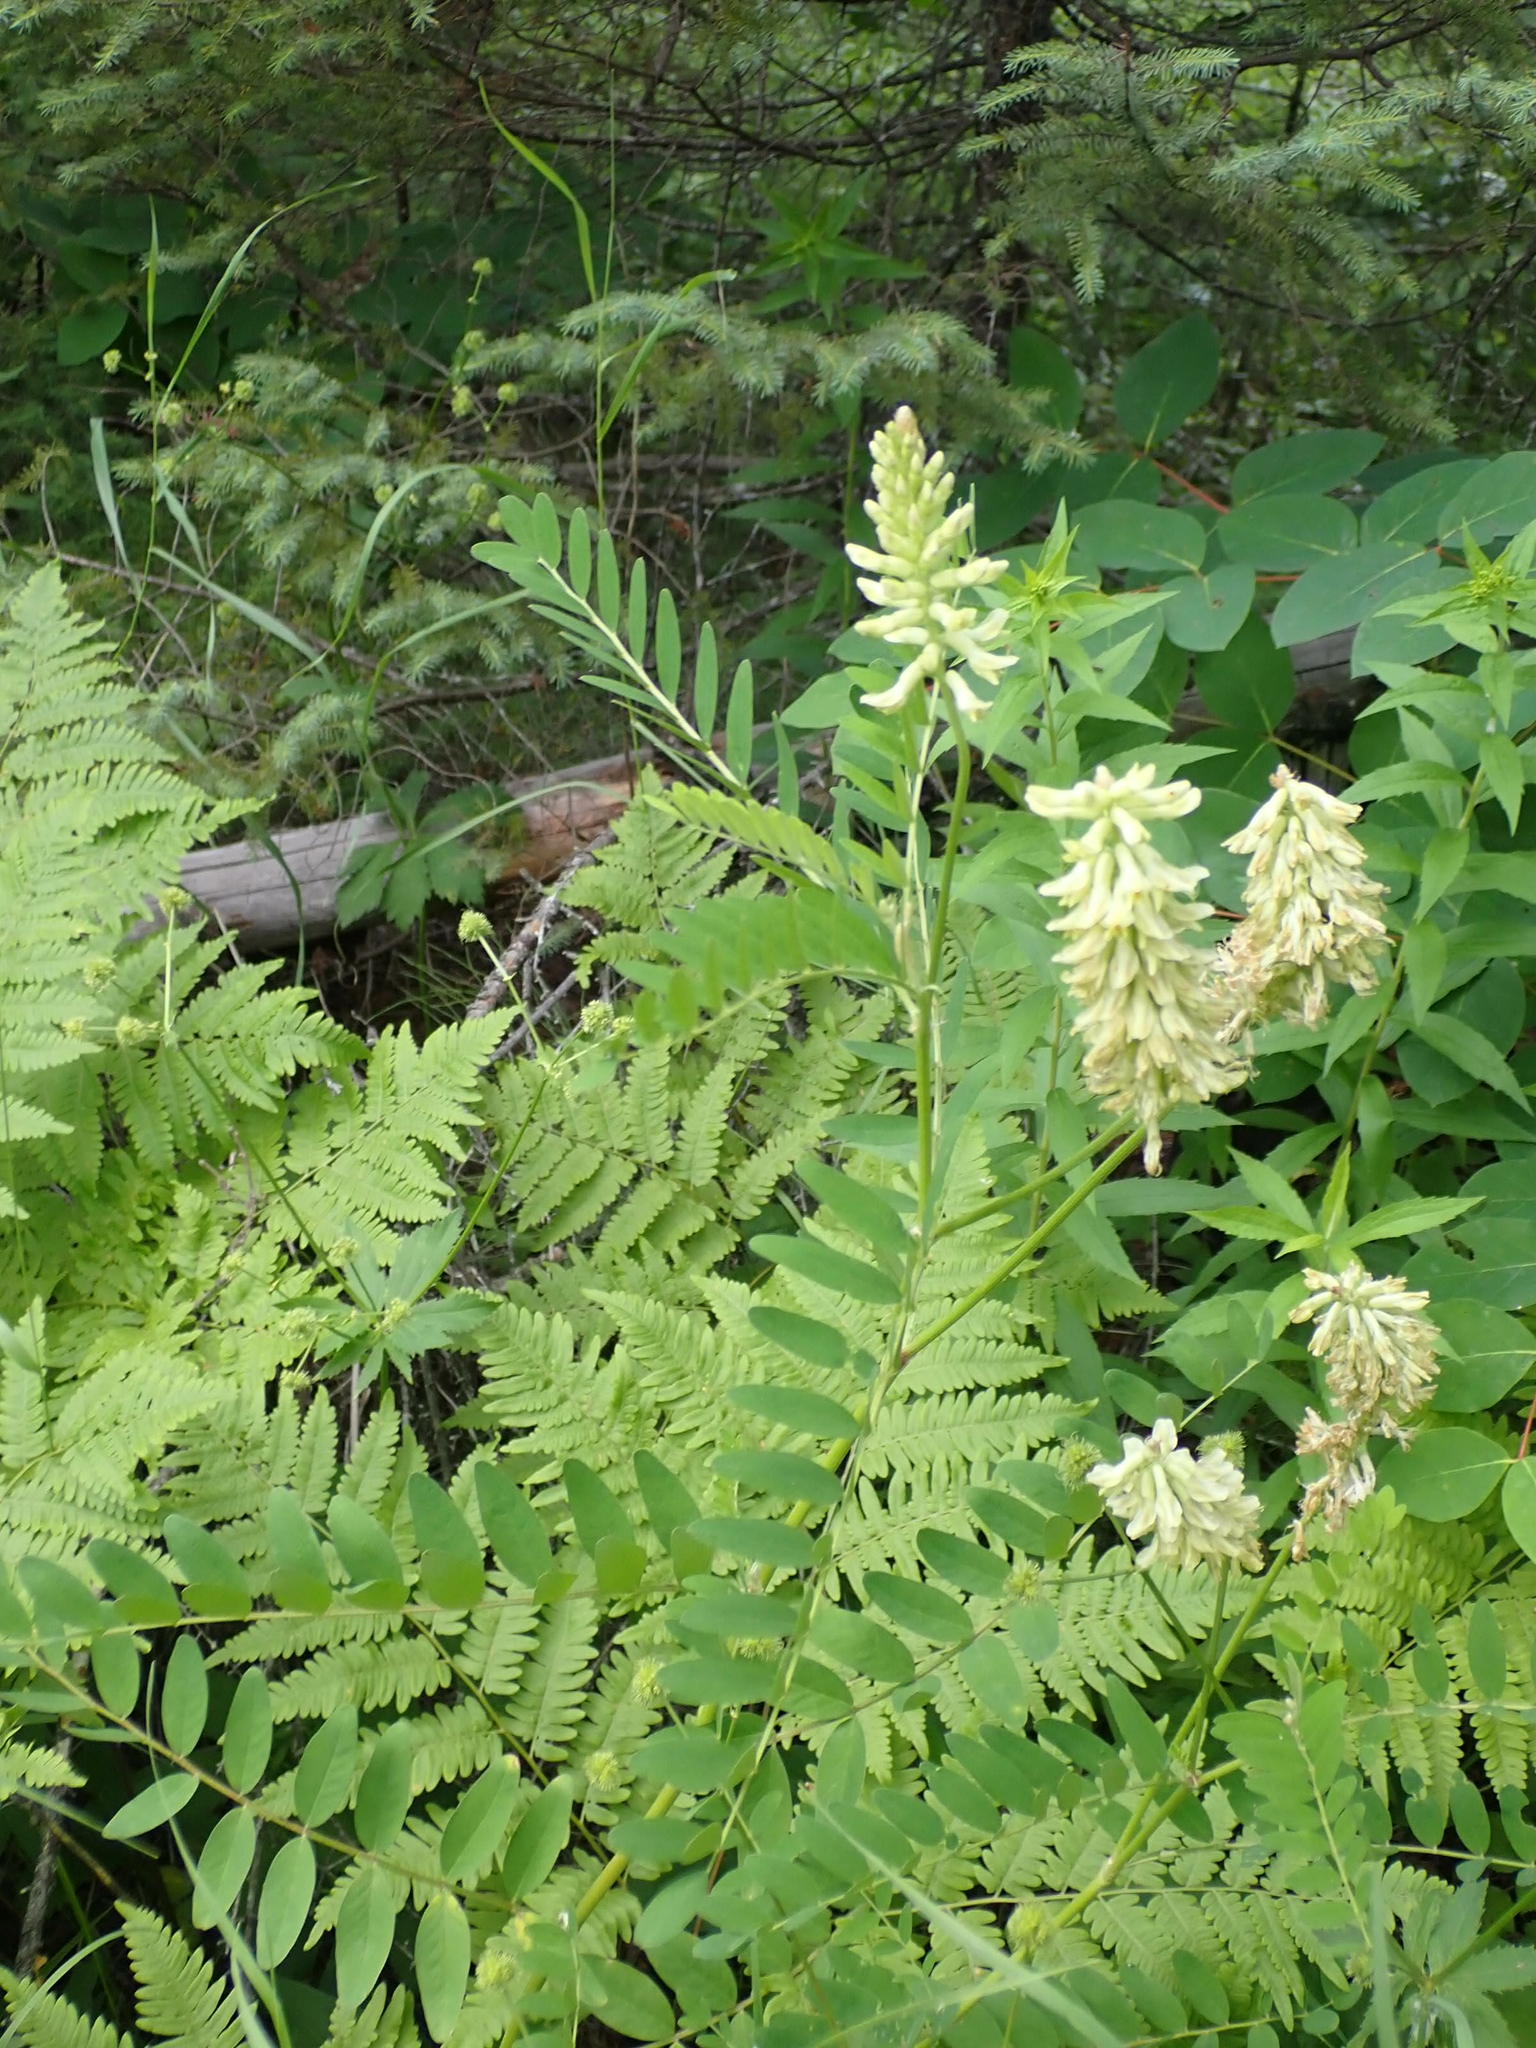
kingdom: Plantae
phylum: Tracheophyta
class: Magnoliopsida
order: Fabales
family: Fabaceae
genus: Astragalus
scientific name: Astragalus canadensis
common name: Canada milk-vetch
